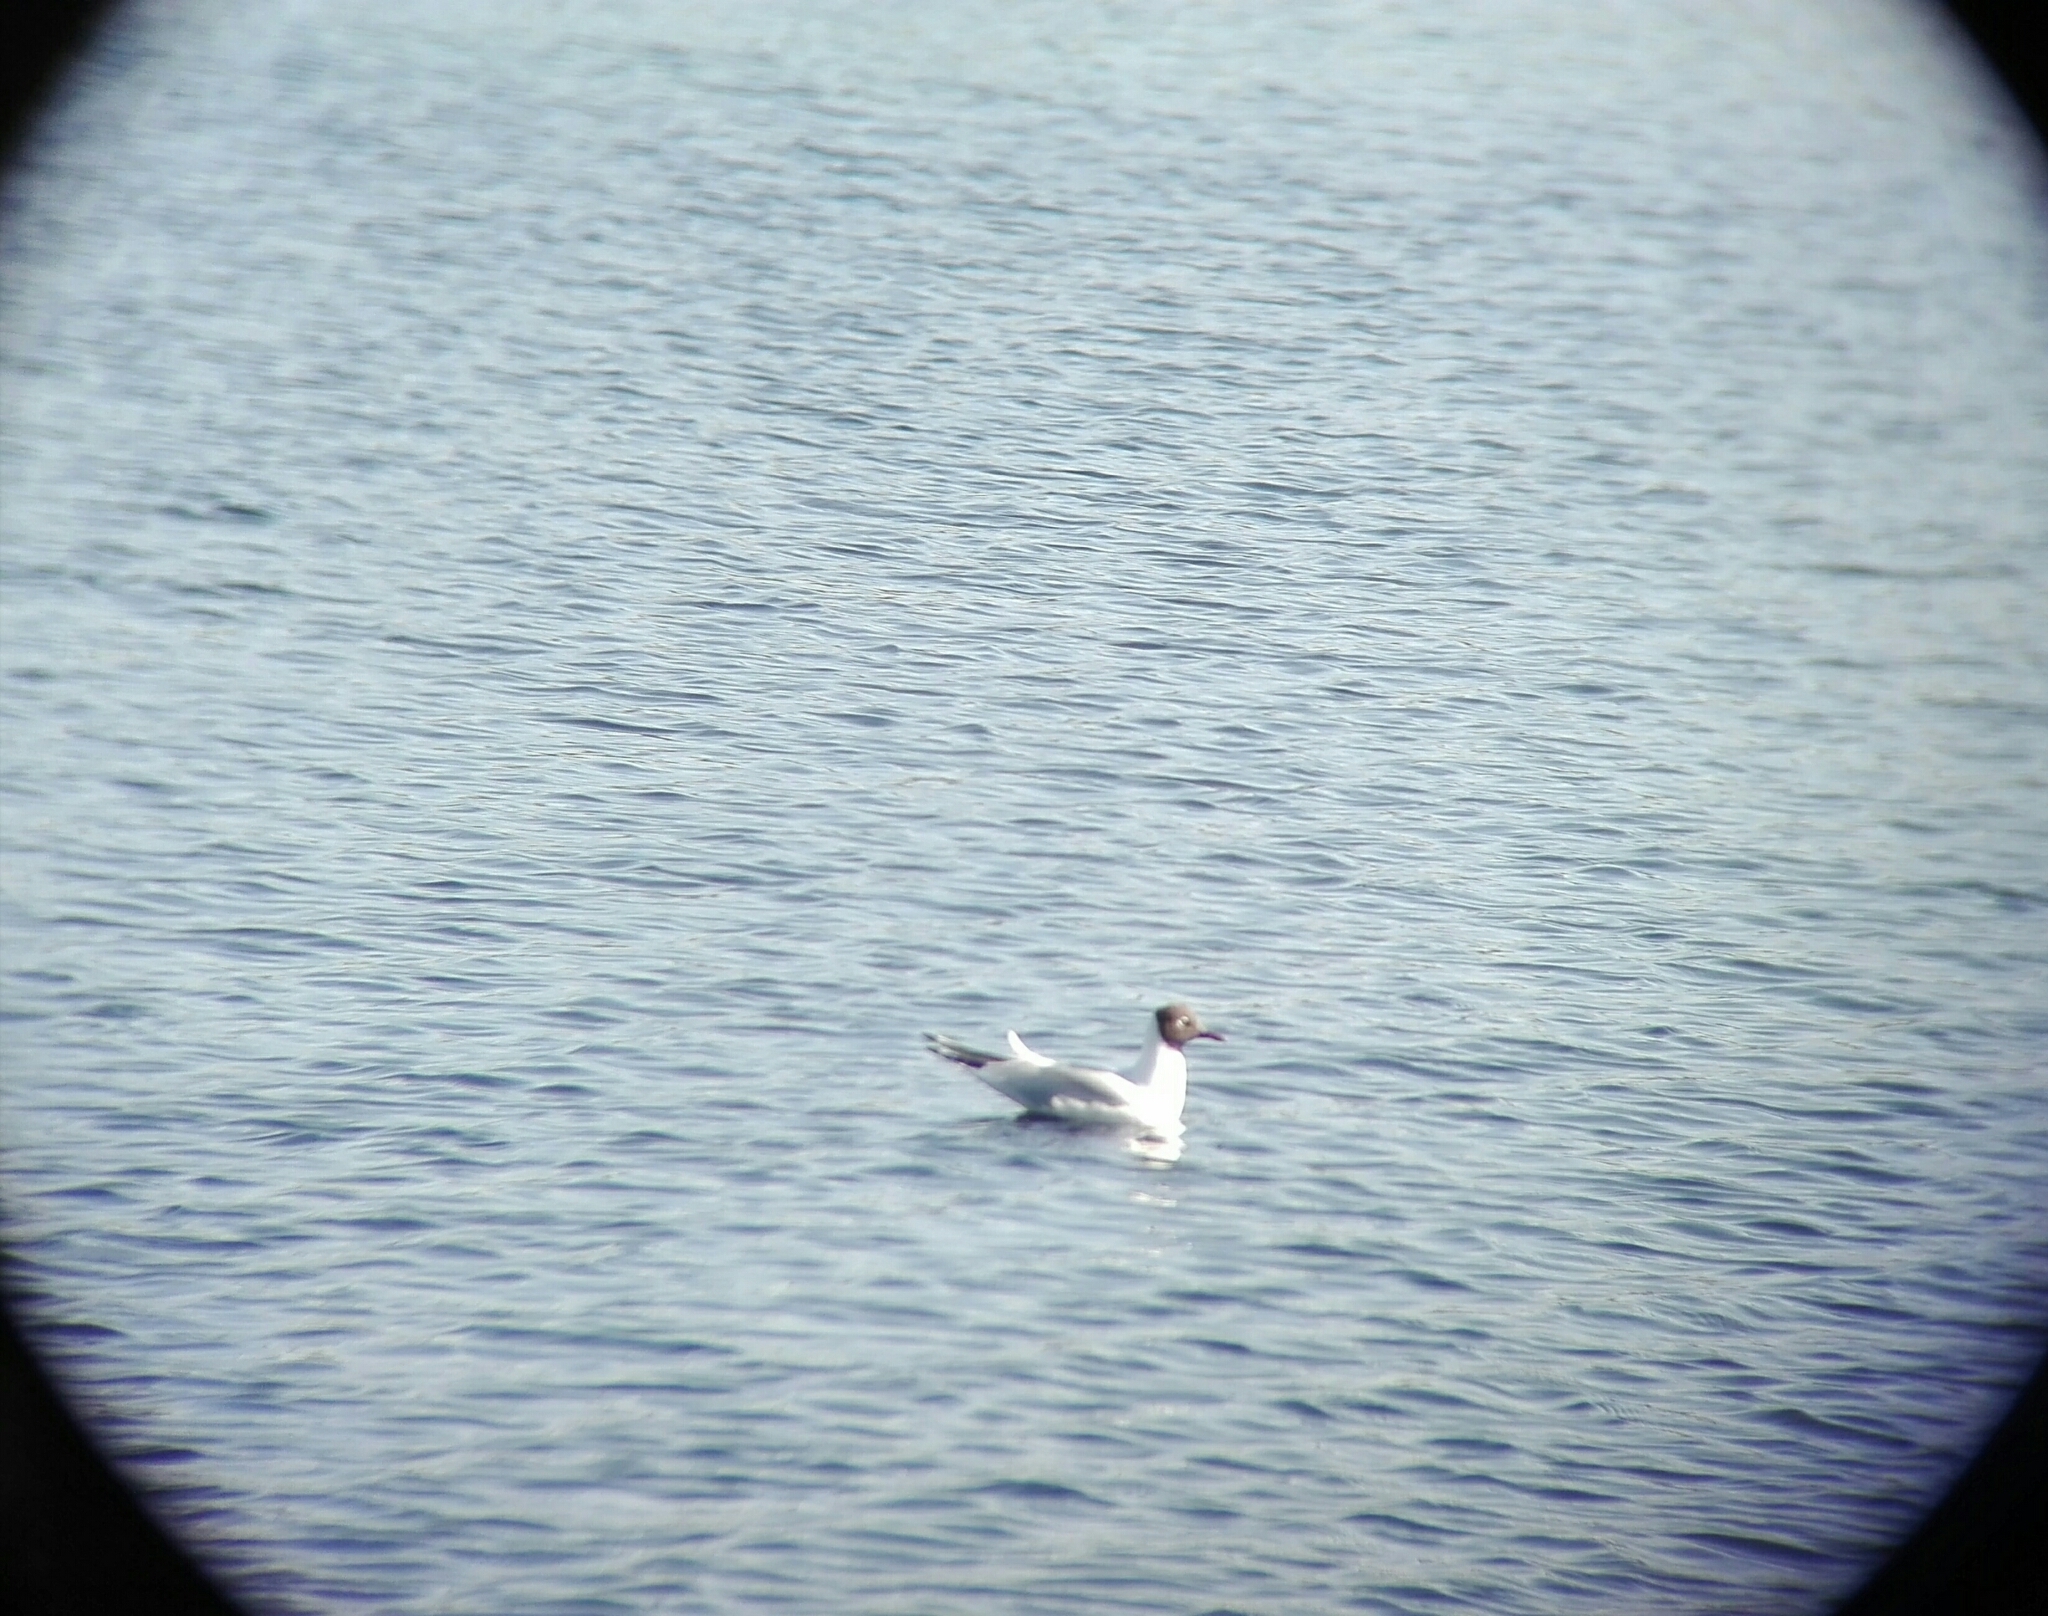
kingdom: Animalia
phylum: Chordata
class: Aves
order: Charadriiformes
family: Laridae
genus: Chroicocephalus
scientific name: Chroicocephalus ridibundus
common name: Black-headed gull
